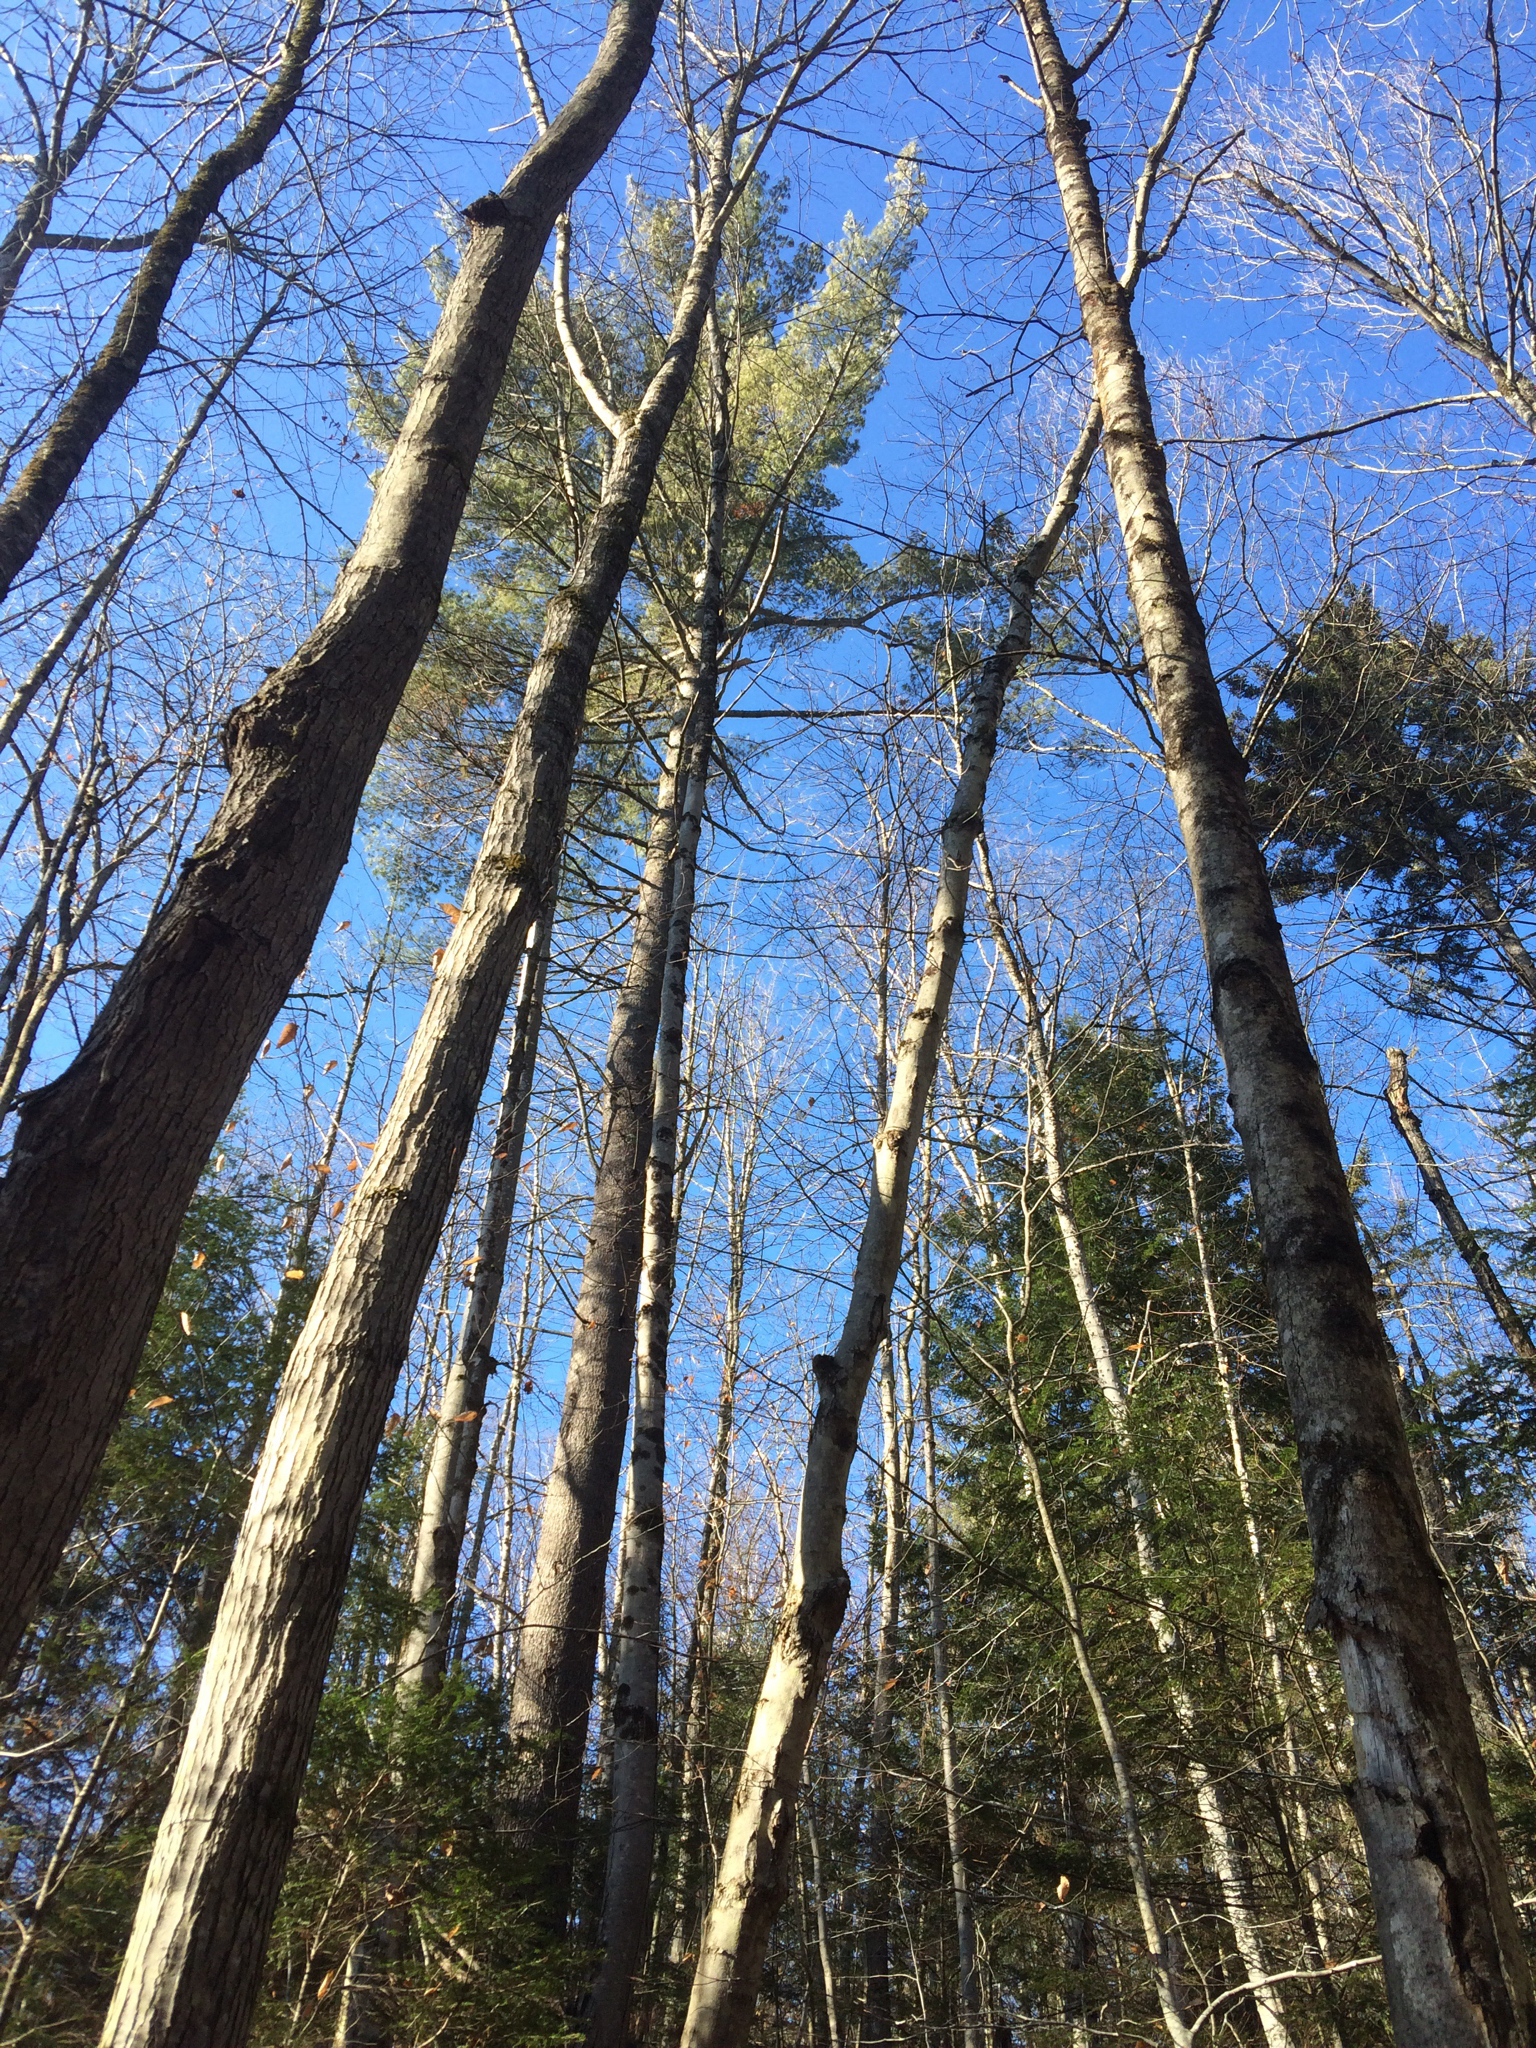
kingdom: Plantae
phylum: Tracheophyta
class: Pinopsida
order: Pinales
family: Pinaceae
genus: Pinus
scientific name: Pinus strobus
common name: Weymouth pine
